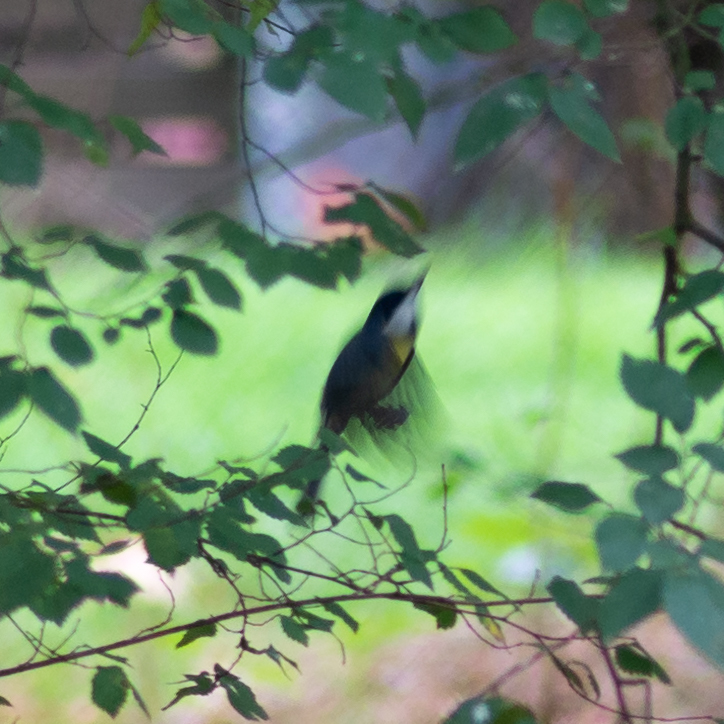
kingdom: Animalia
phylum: Chordata
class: Aves
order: Passeriformes
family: Paridae
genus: Parus
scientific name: Parus major
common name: Great tit
